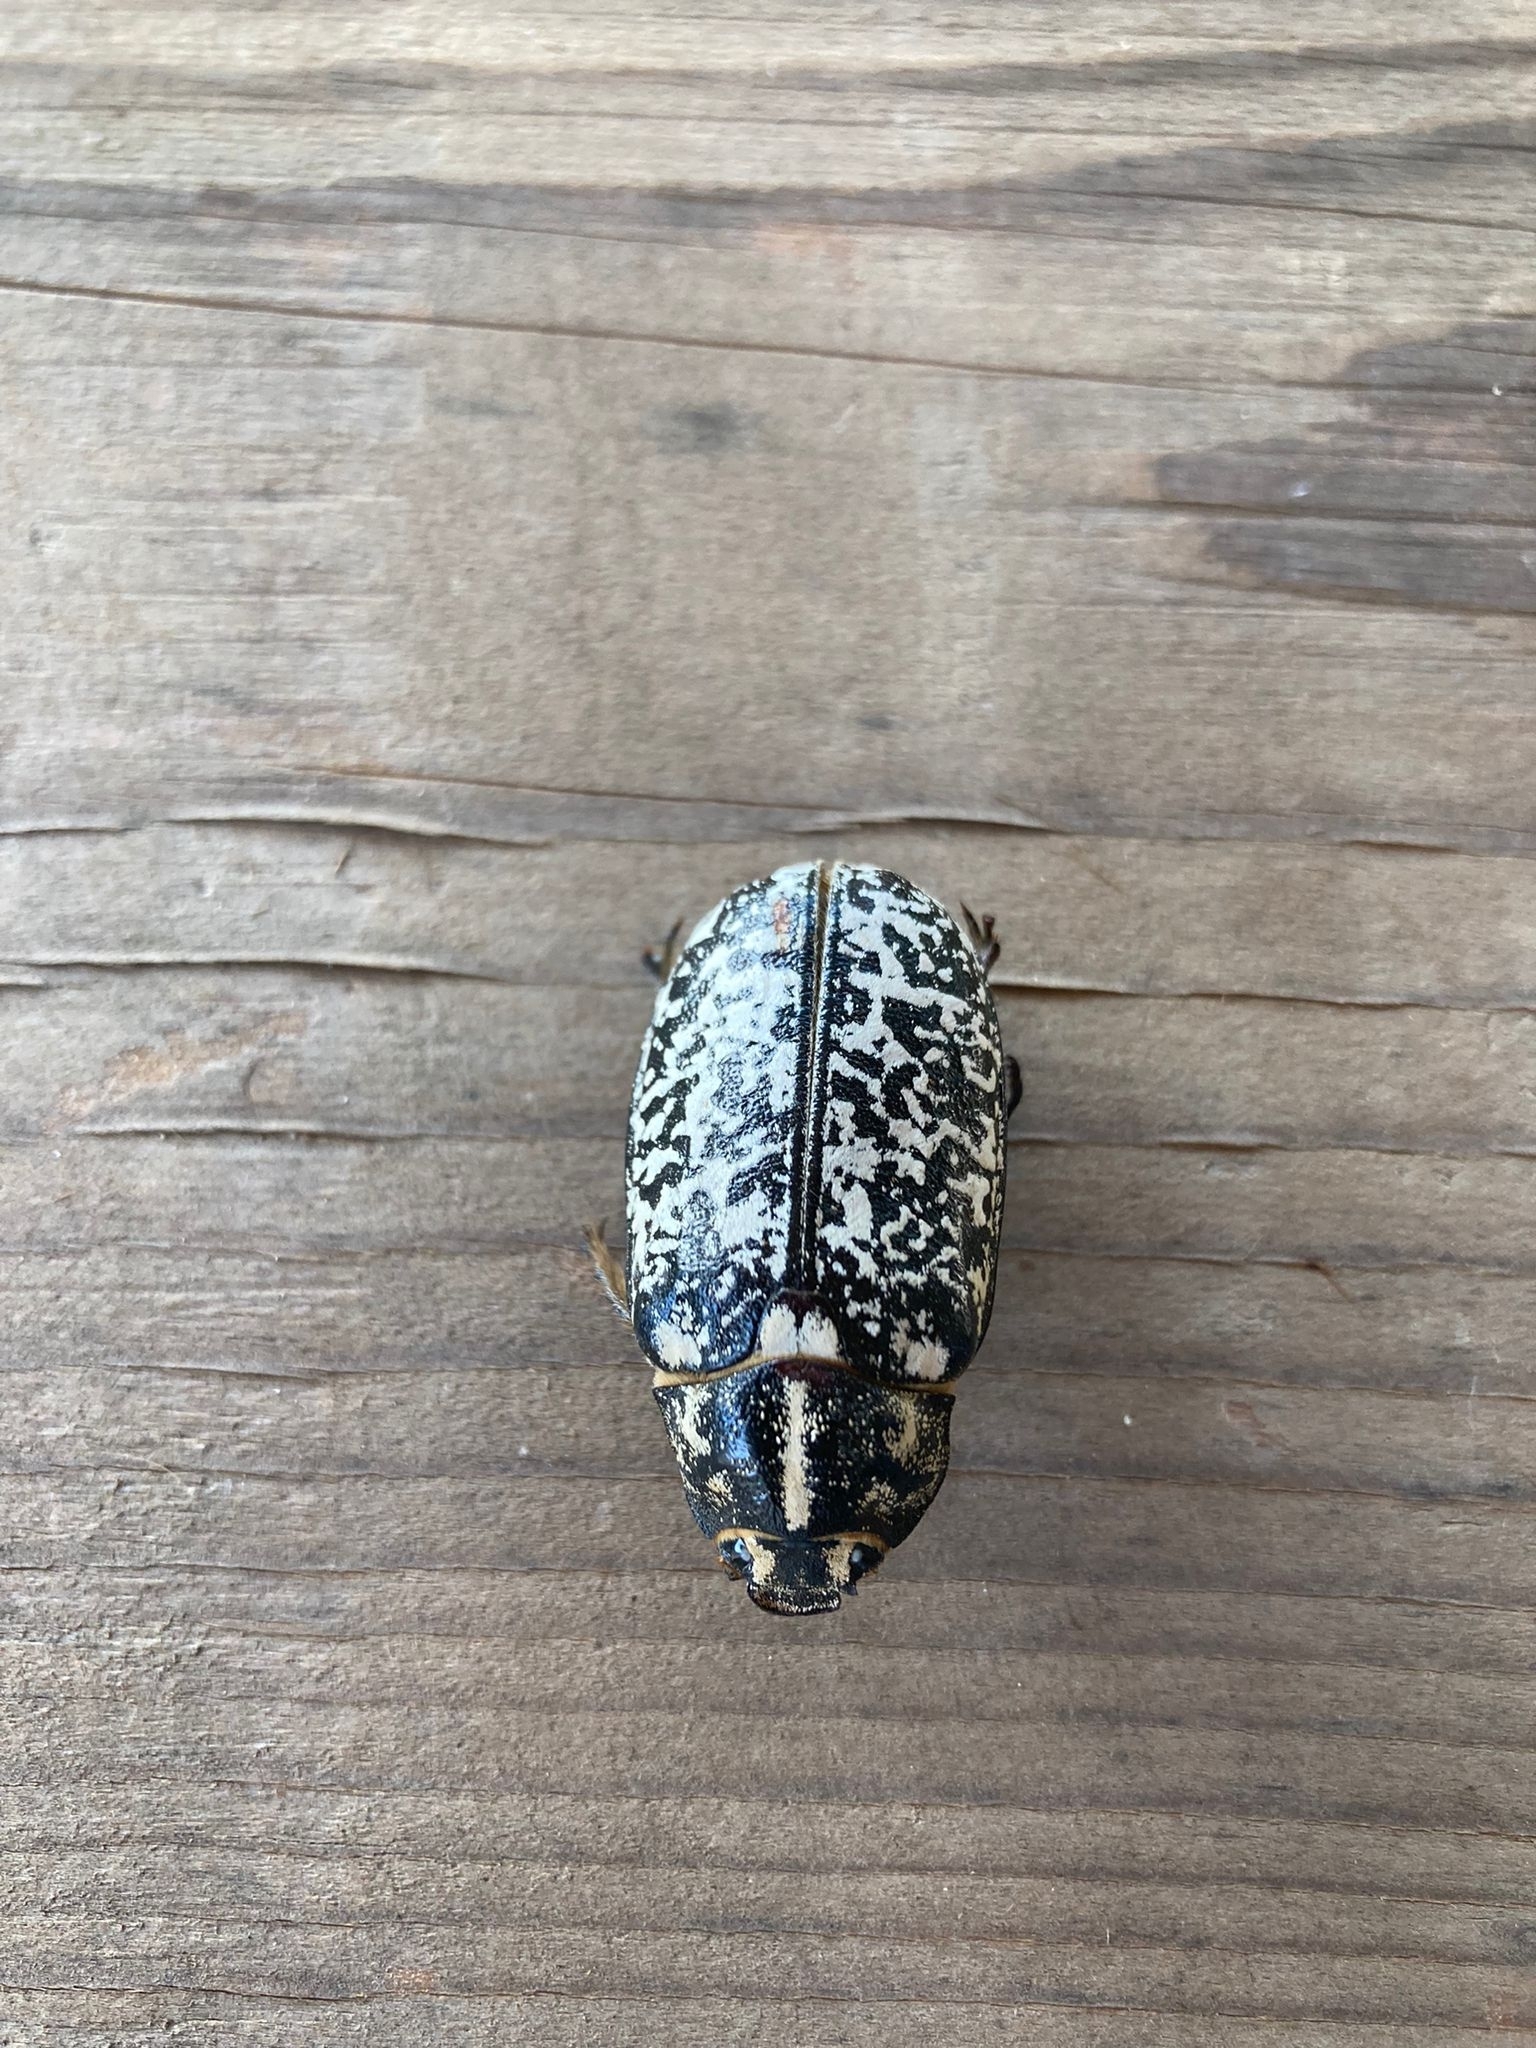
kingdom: Animalia
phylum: Arthropoda
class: Insecta
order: Coleoptera
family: Scarabaeidae
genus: Polyphylla
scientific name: Polyphylla fullo
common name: Pine chafer
